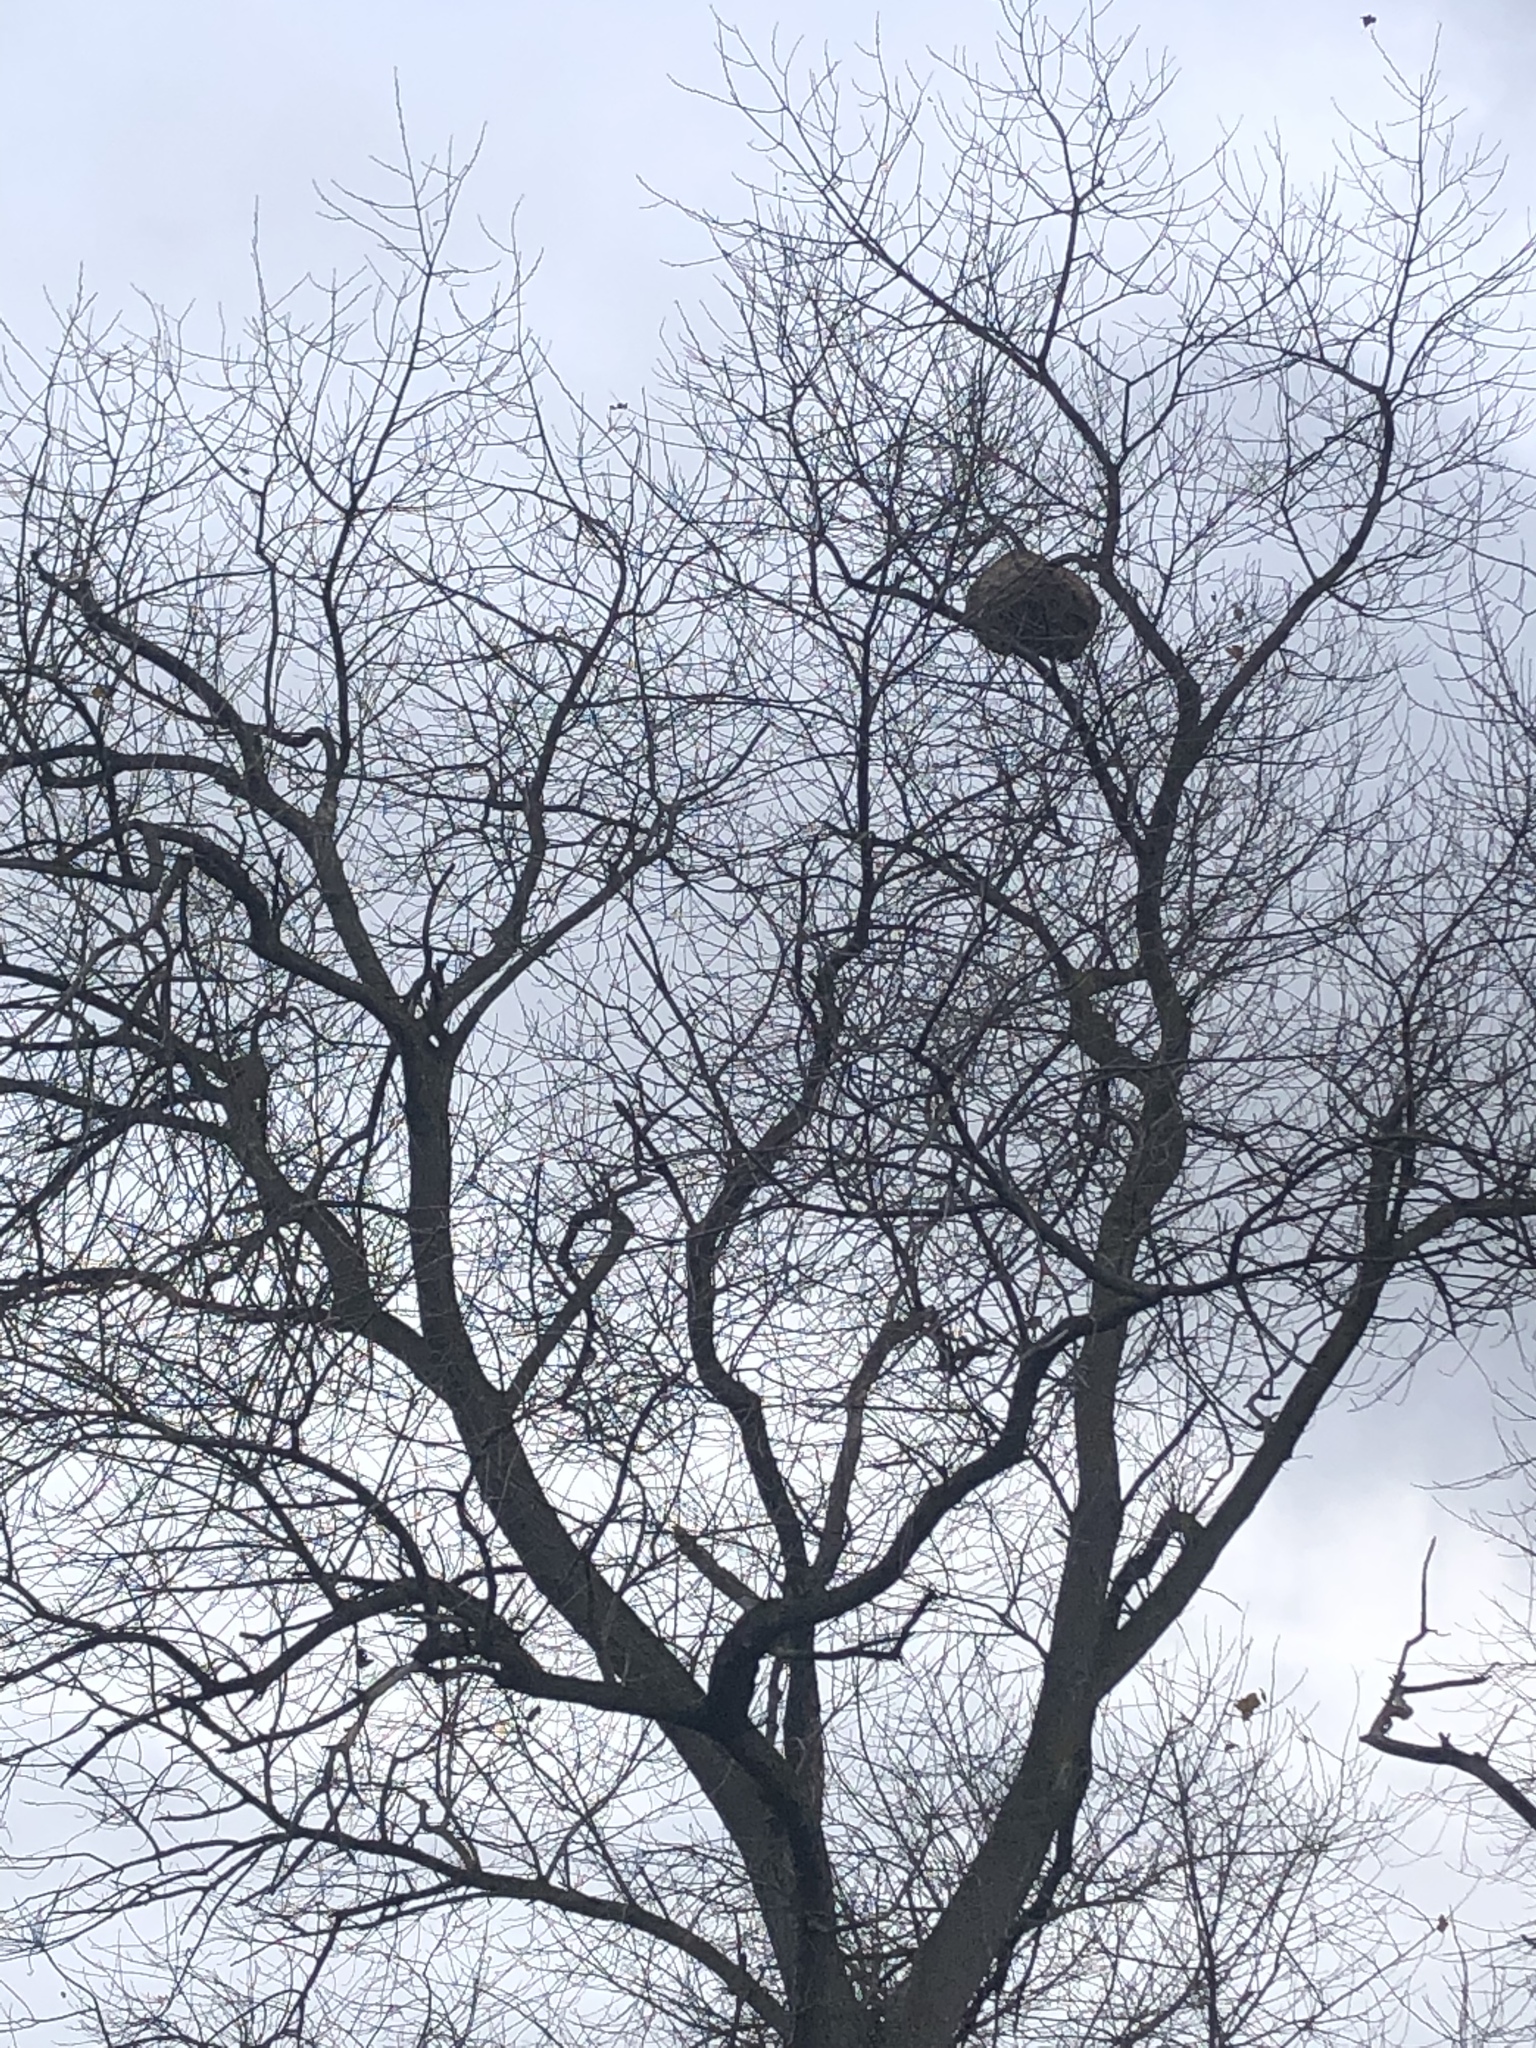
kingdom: Animalia
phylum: Arthropoda
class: Insecta
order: Hymenoptera
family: Vespidae
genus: Vespa
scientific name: Vespa velutina
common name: Asian hornet
